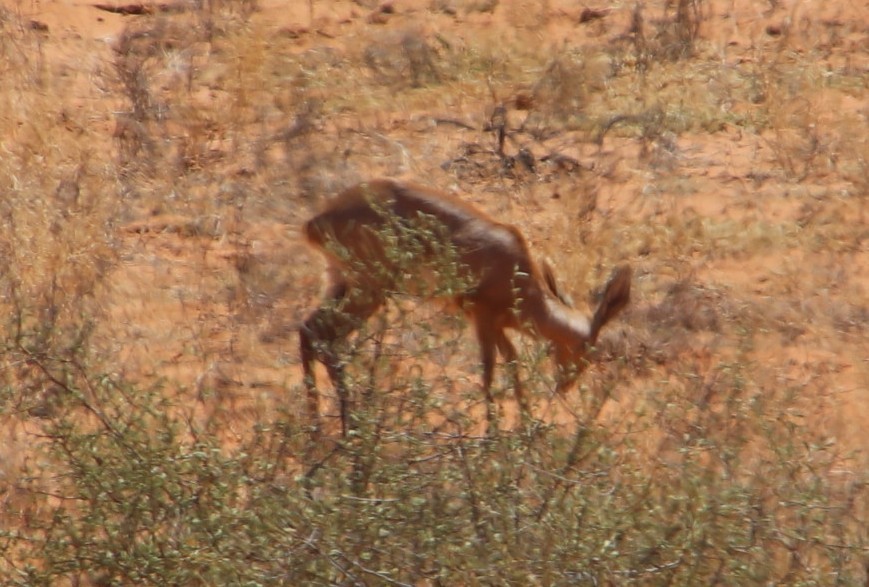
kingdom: Animalia
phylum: Chordata
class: Mammalia
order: Artiodactyla
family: Bovidae
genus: Raphicerus
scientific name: Raphicerus campestris
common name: Steenbok
